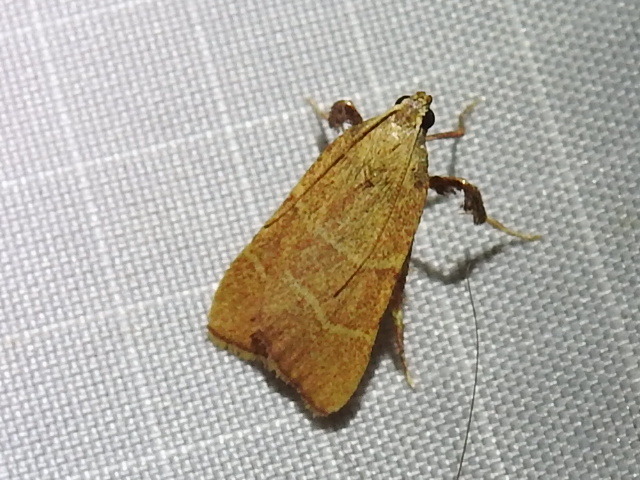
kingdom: Animalia
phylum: Arthropoda
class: Insecta
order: Lepidoptera
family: Pyralidae
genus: Parachma
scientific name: Parachma ochracealis
